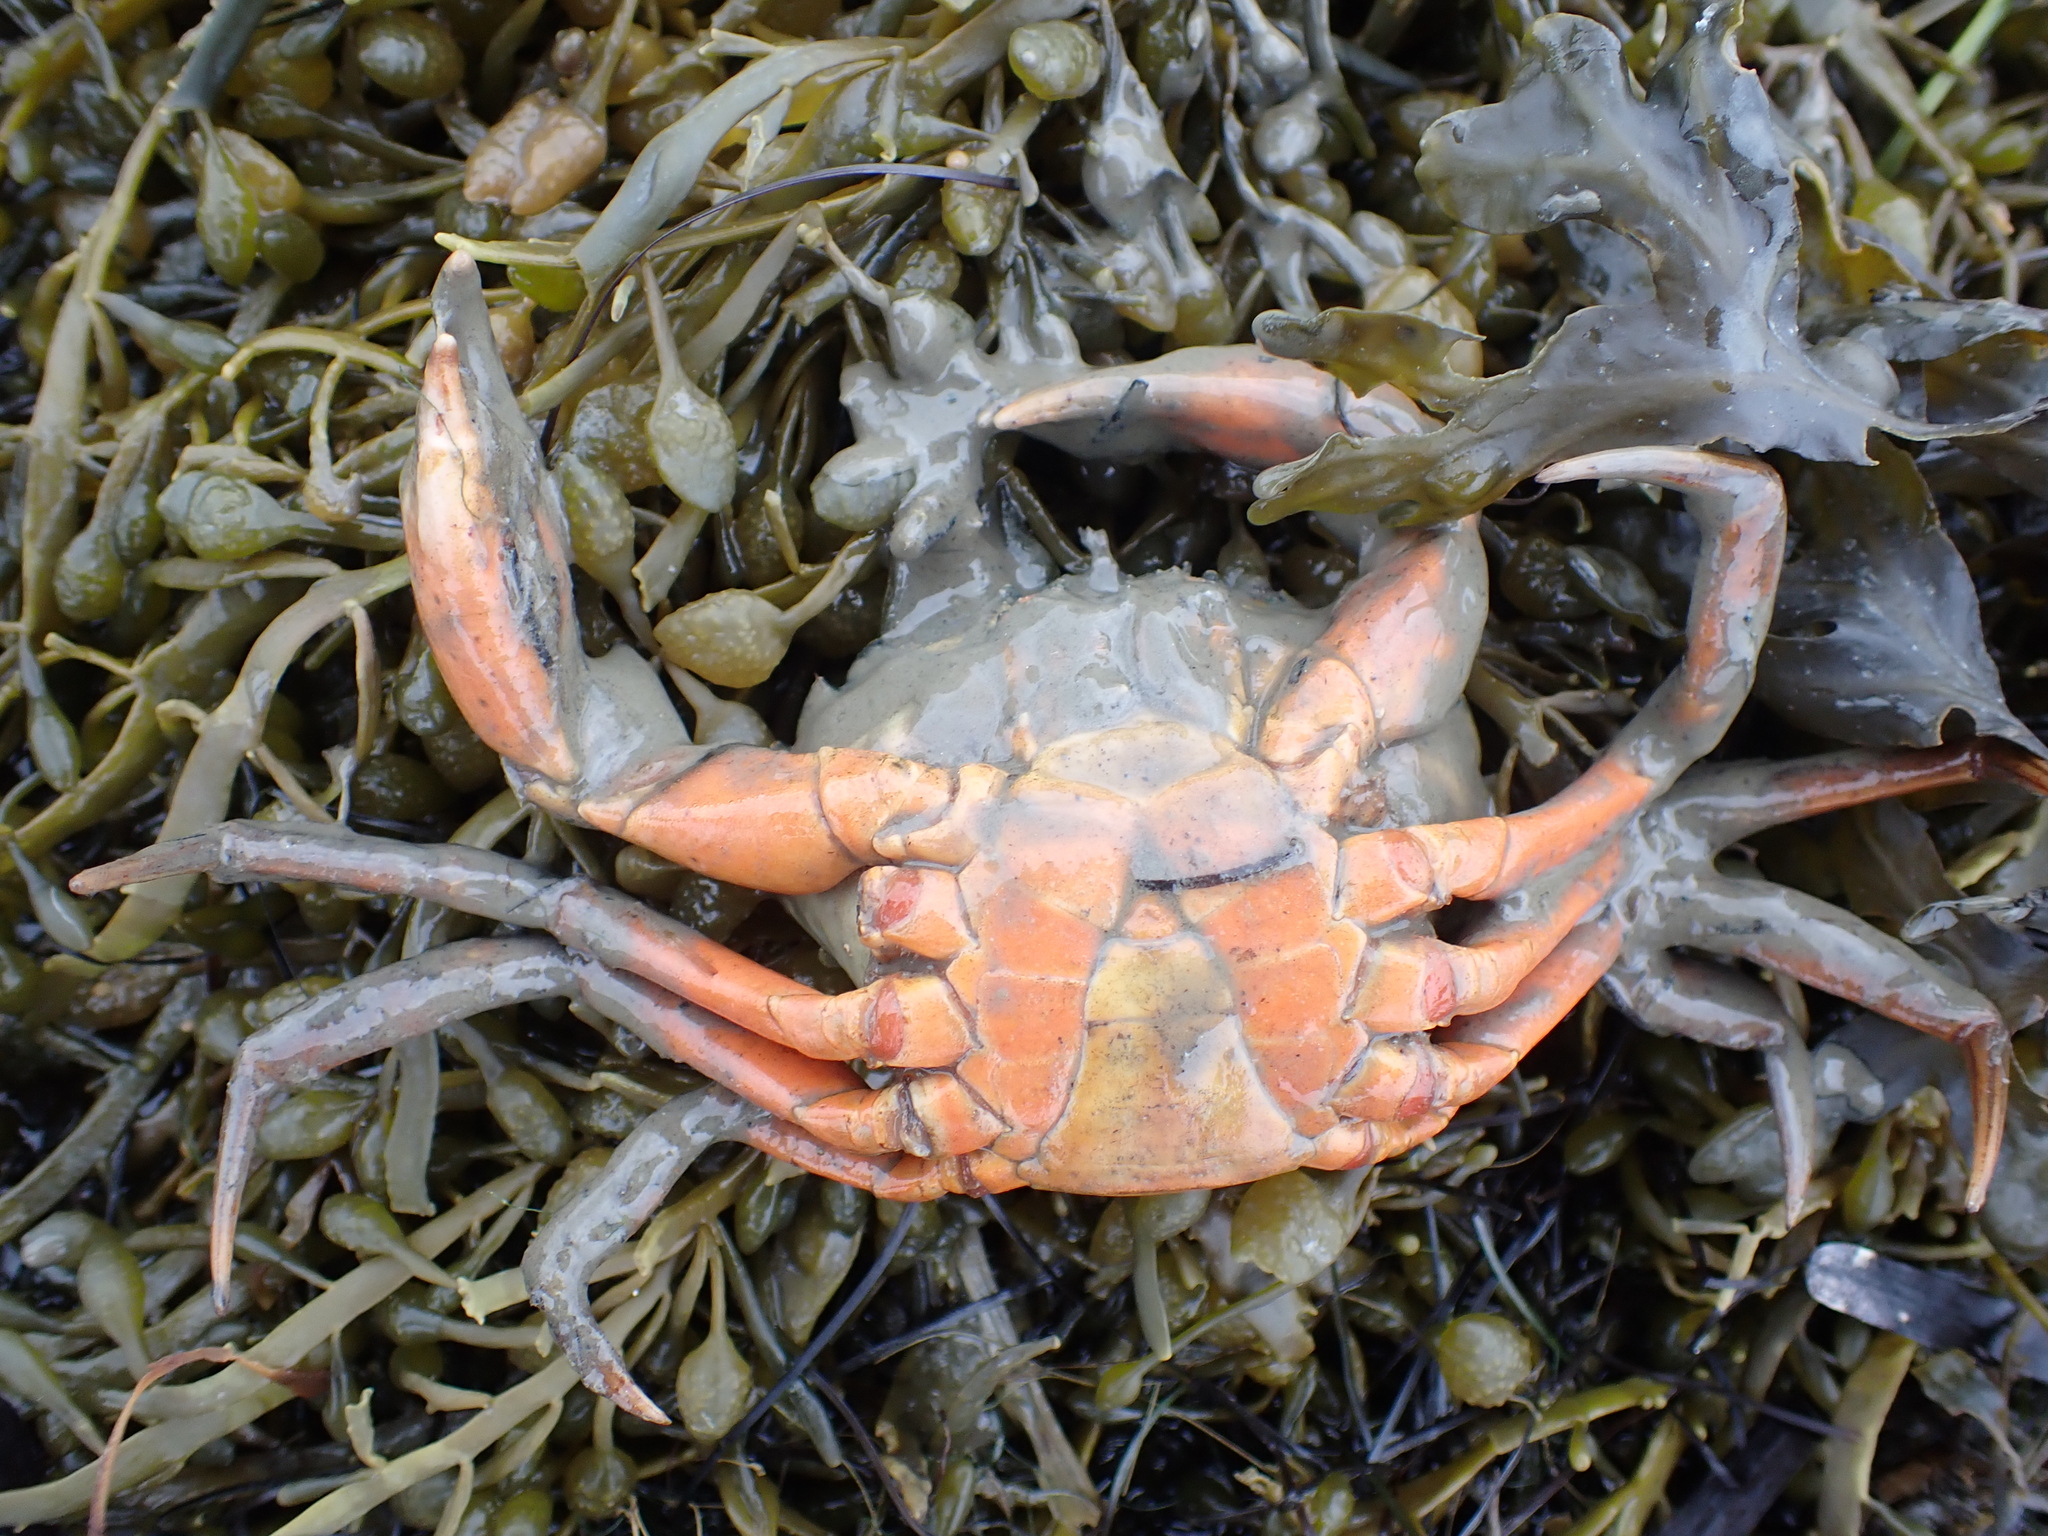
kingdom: Animalia
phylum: Arthropoda
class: Malacostraca
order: Decapoda
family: Carcinidae
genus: Carcinus
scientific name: Carcinus maenas
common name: European green crab
